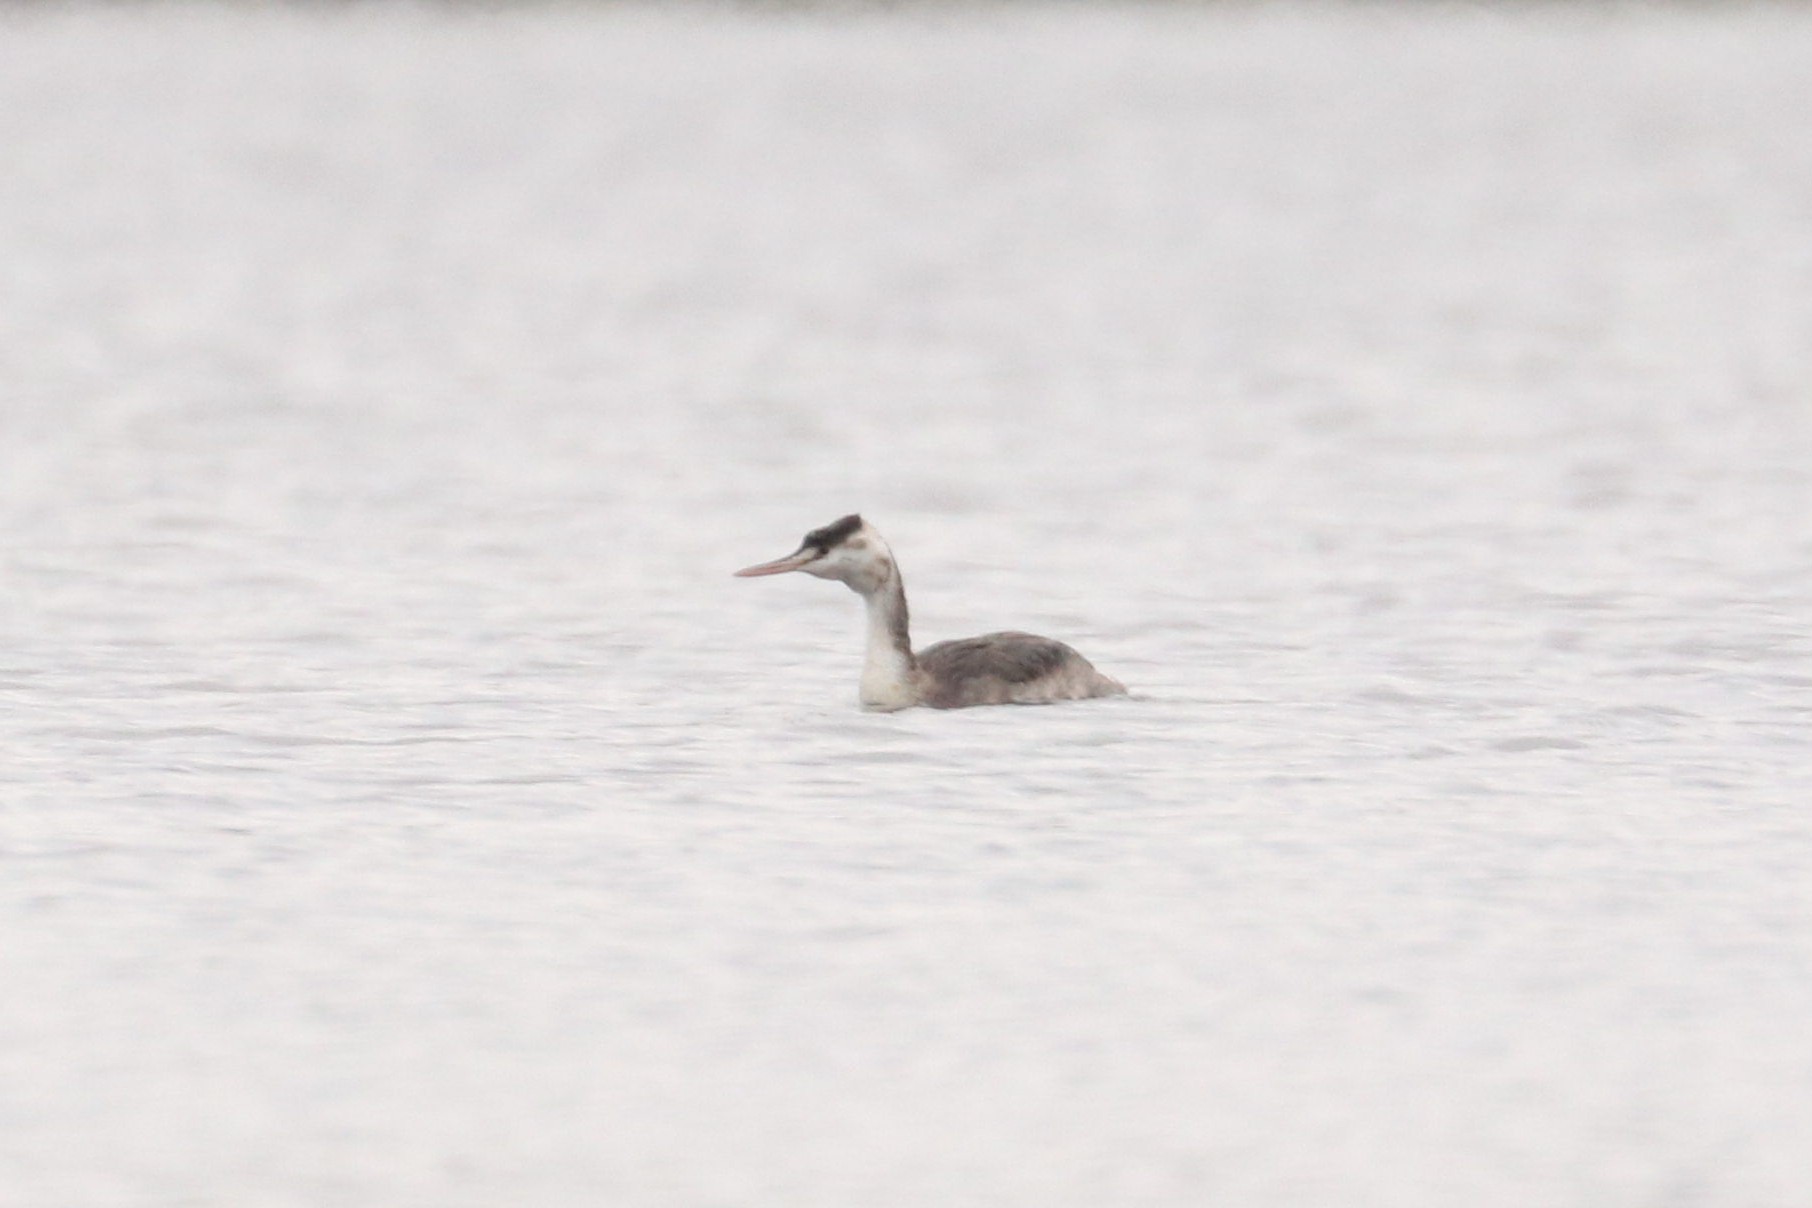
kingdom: Animalia
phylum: Chordata
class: Aves
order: Podicipediformes
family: Podicipedidae
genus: Podiceps
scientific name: Podiceps cristatus
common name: Great crested grebe
